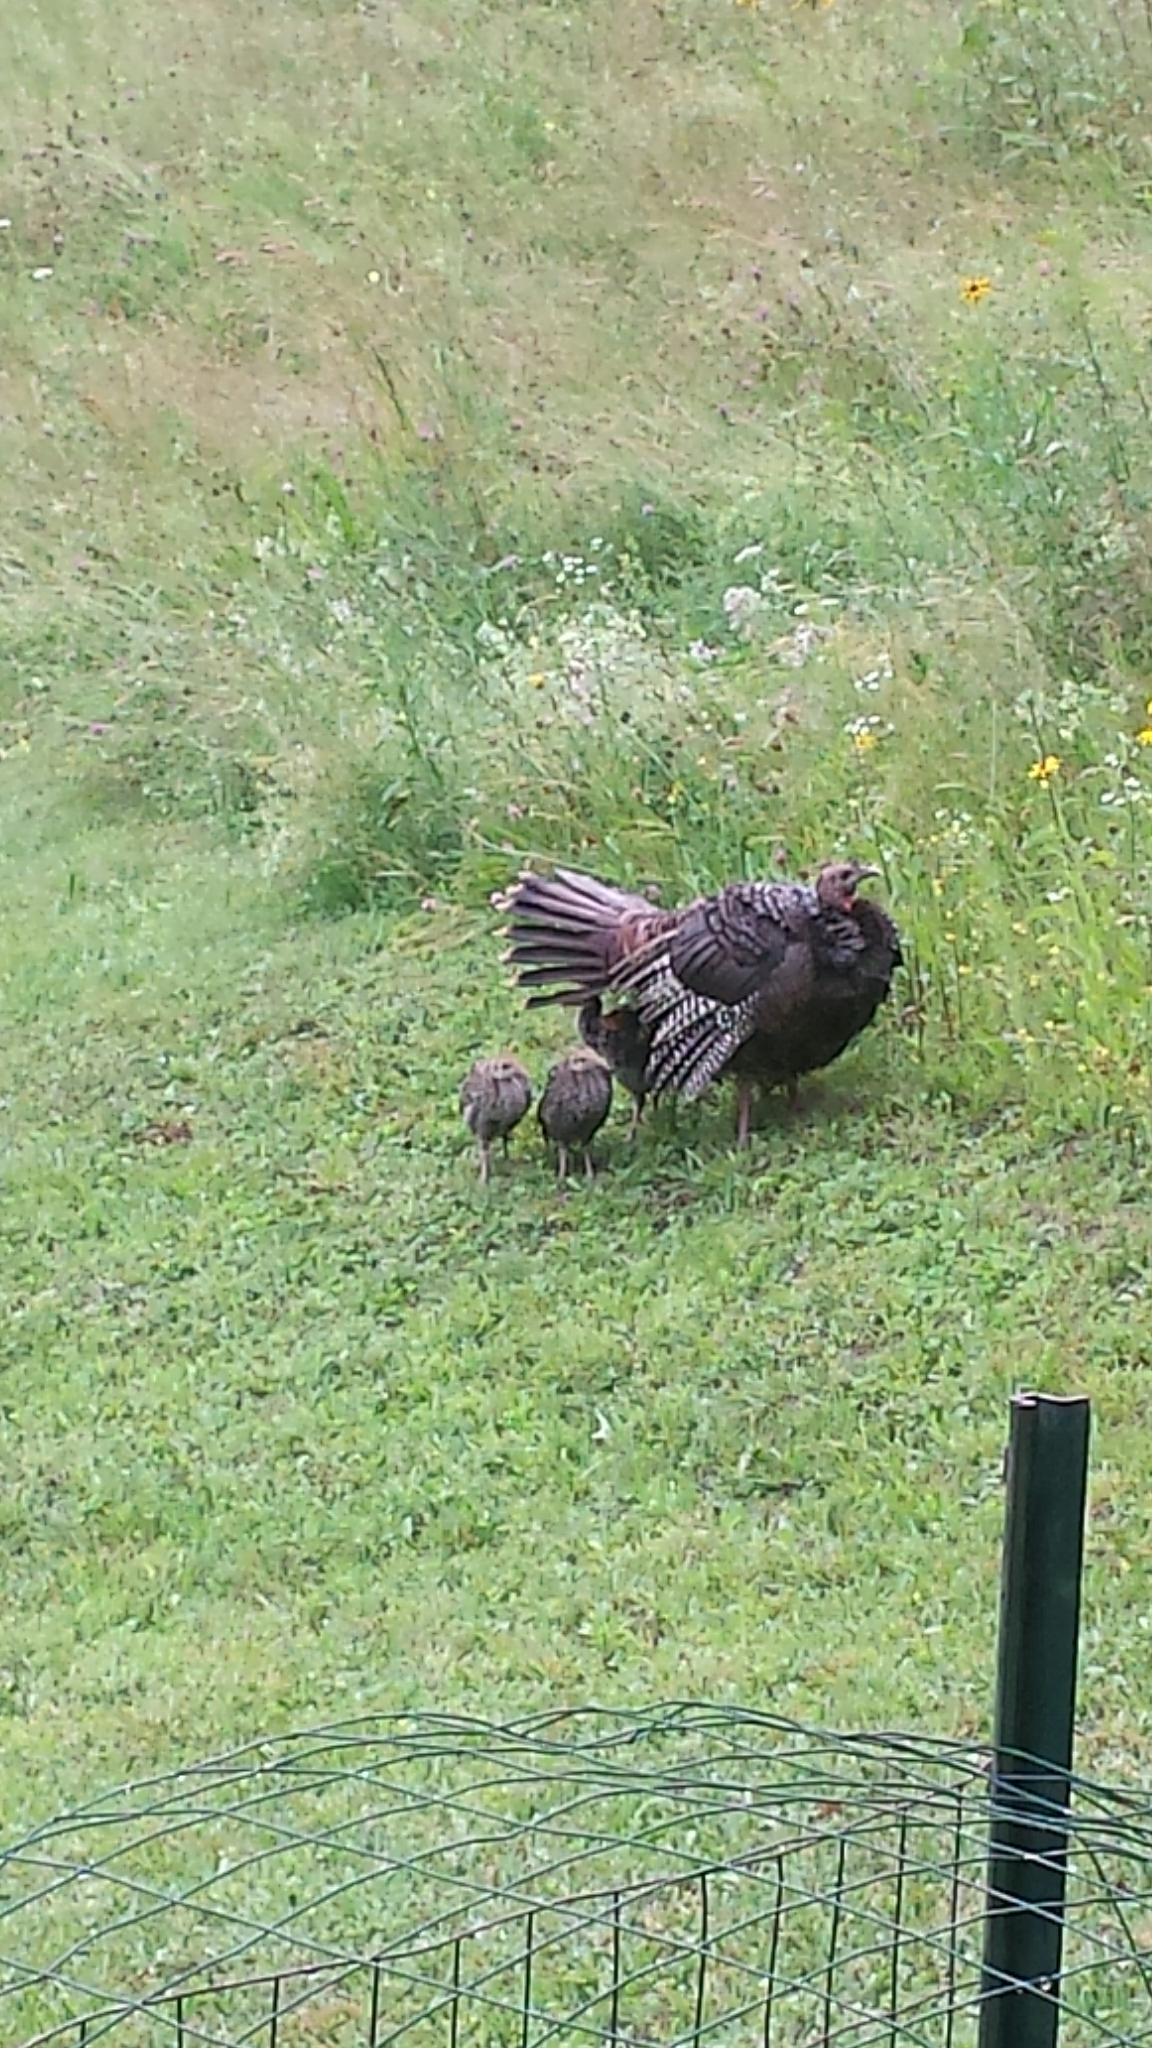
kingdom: Animalia
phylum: Chordata
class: Aves
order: Galliformes
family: Phasianidae
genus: Meleagris
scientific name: Meleagris gallopavo
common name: Wild turkey
